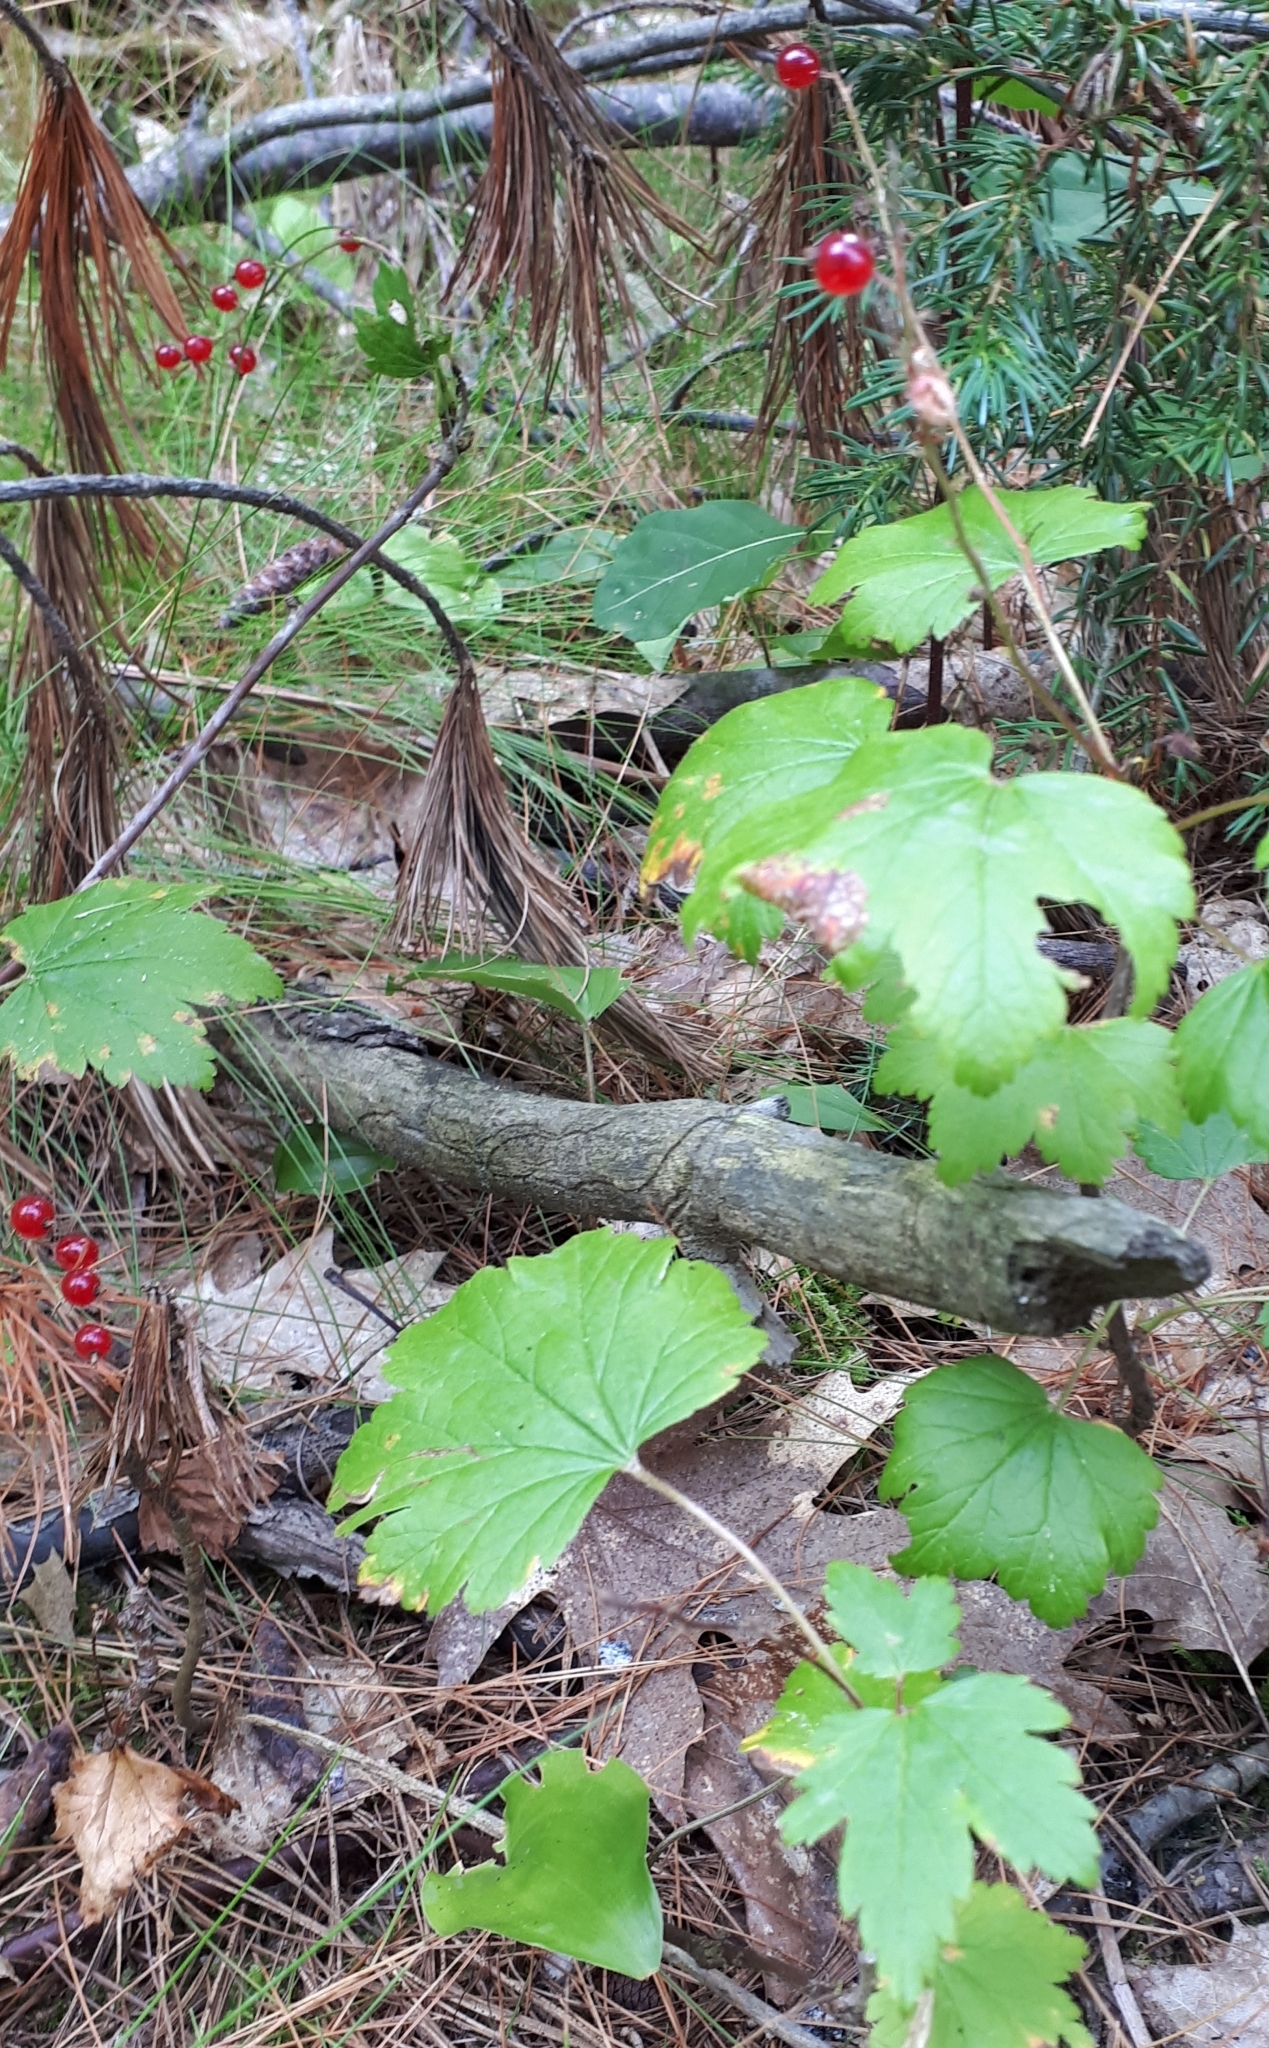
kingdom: Plantae
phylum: Tracheophyta
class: Magnoliopsida
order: Saxifragales
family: Grossulariaceae
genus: Ribes
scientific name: Ribes glandulosum
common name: Skunk currant
